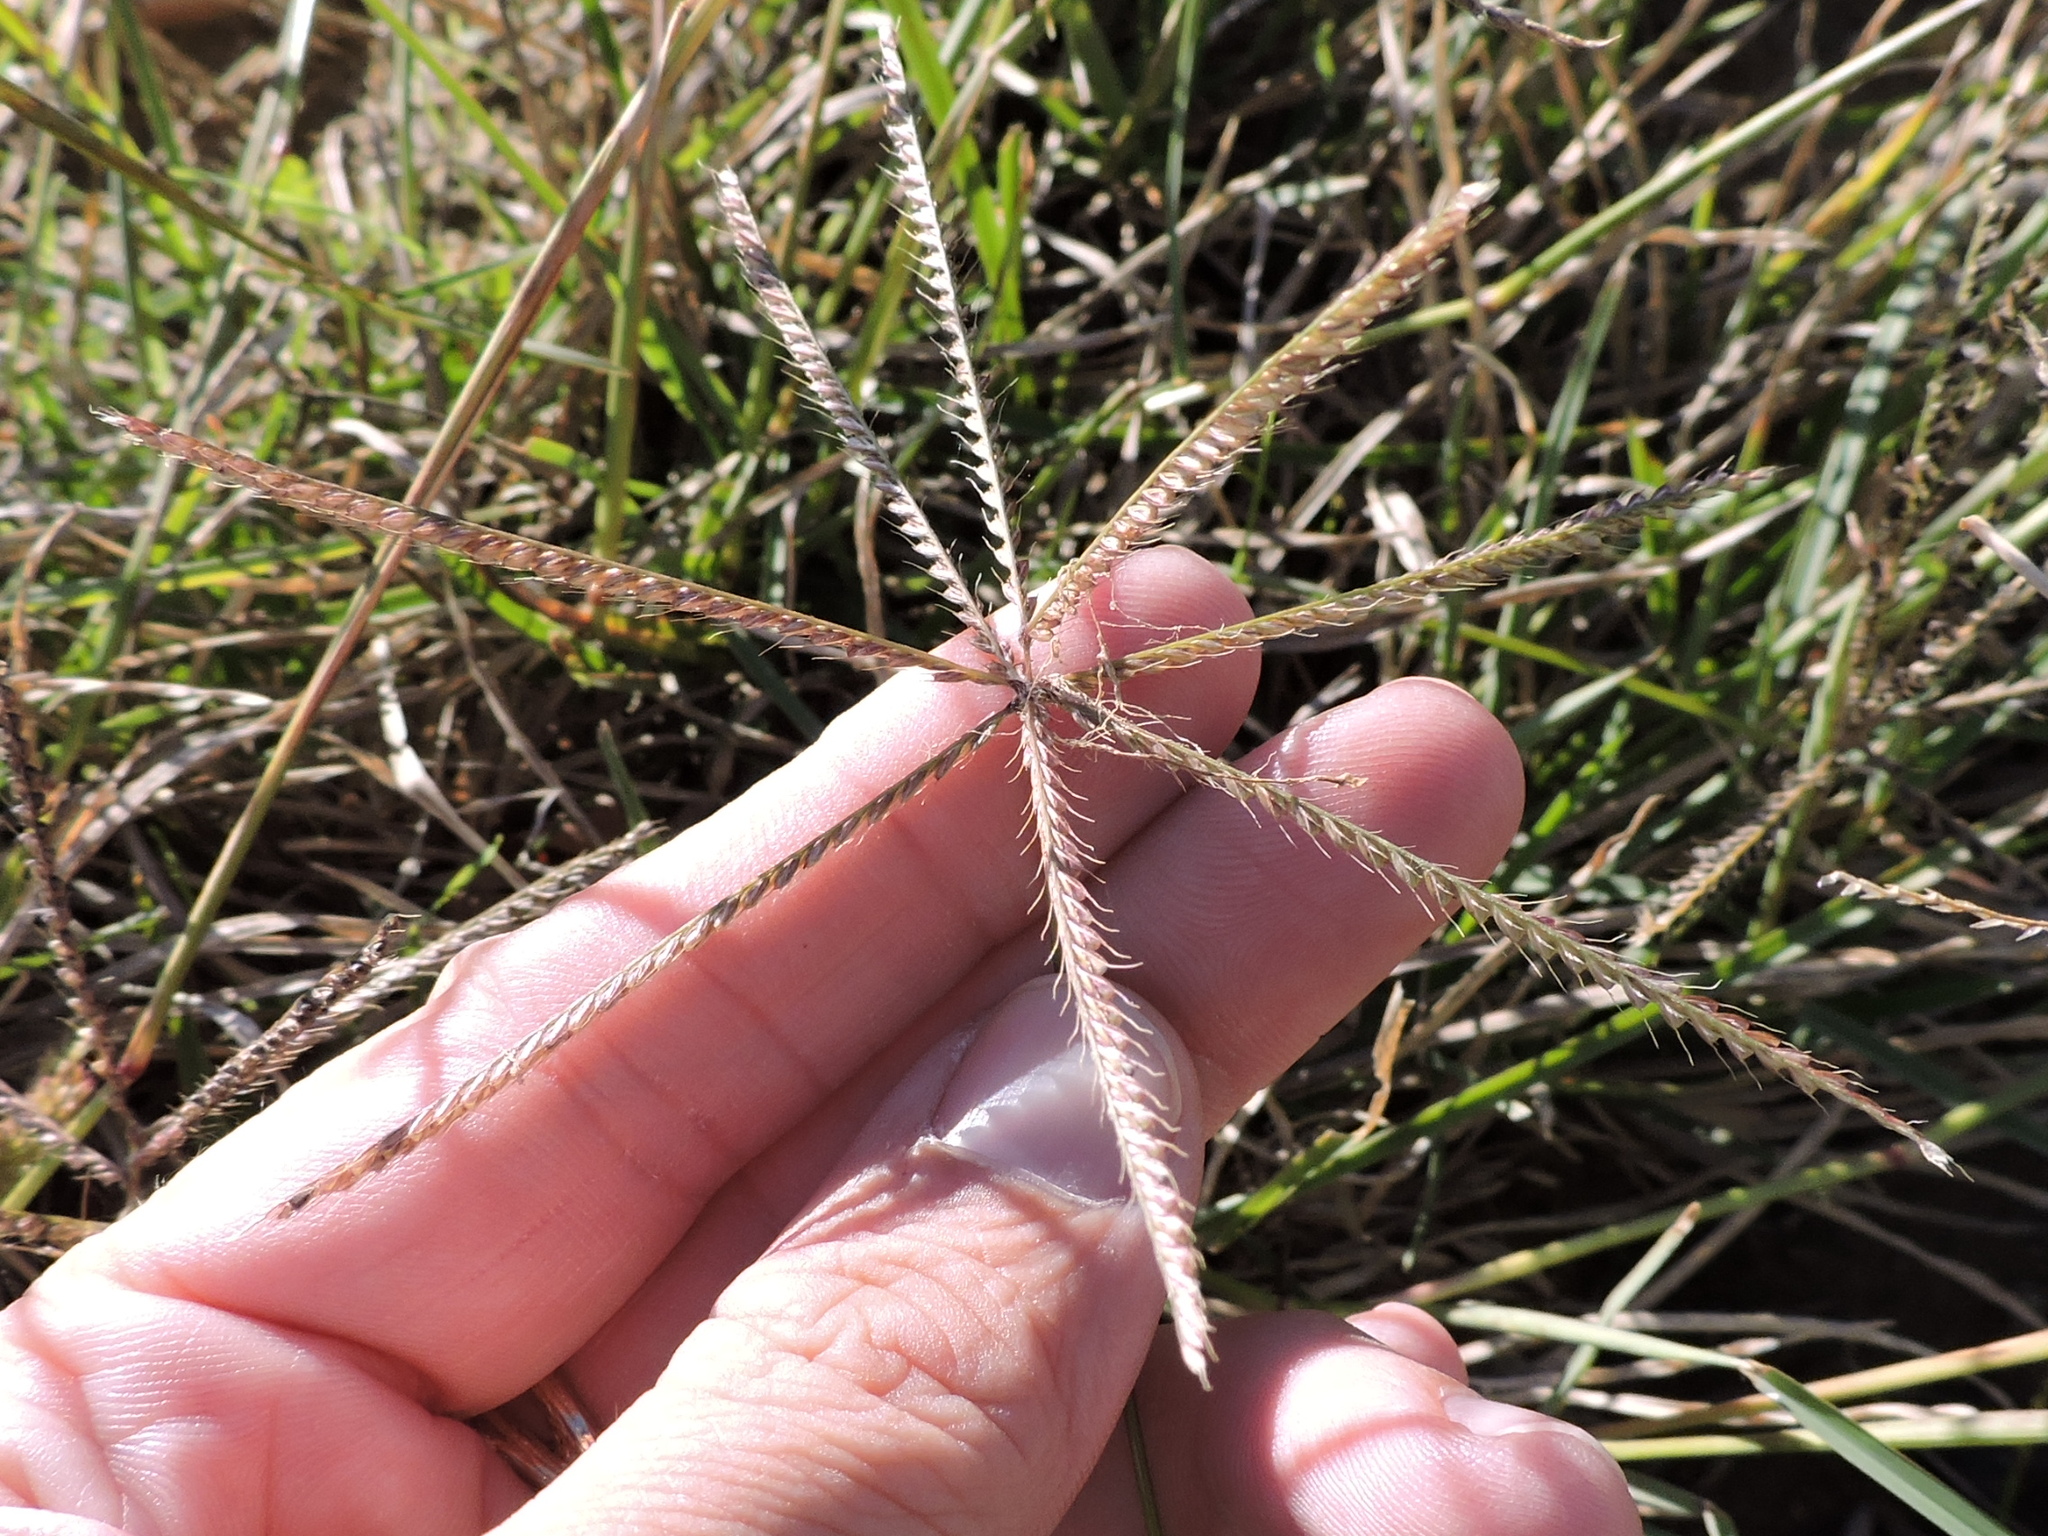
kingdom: Plantae
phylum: Tracheophyta
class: Liliopsida
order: Poales
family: Poaceae
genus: Chloris
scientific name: Chloris verticillata
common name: Tumble windmill grass
